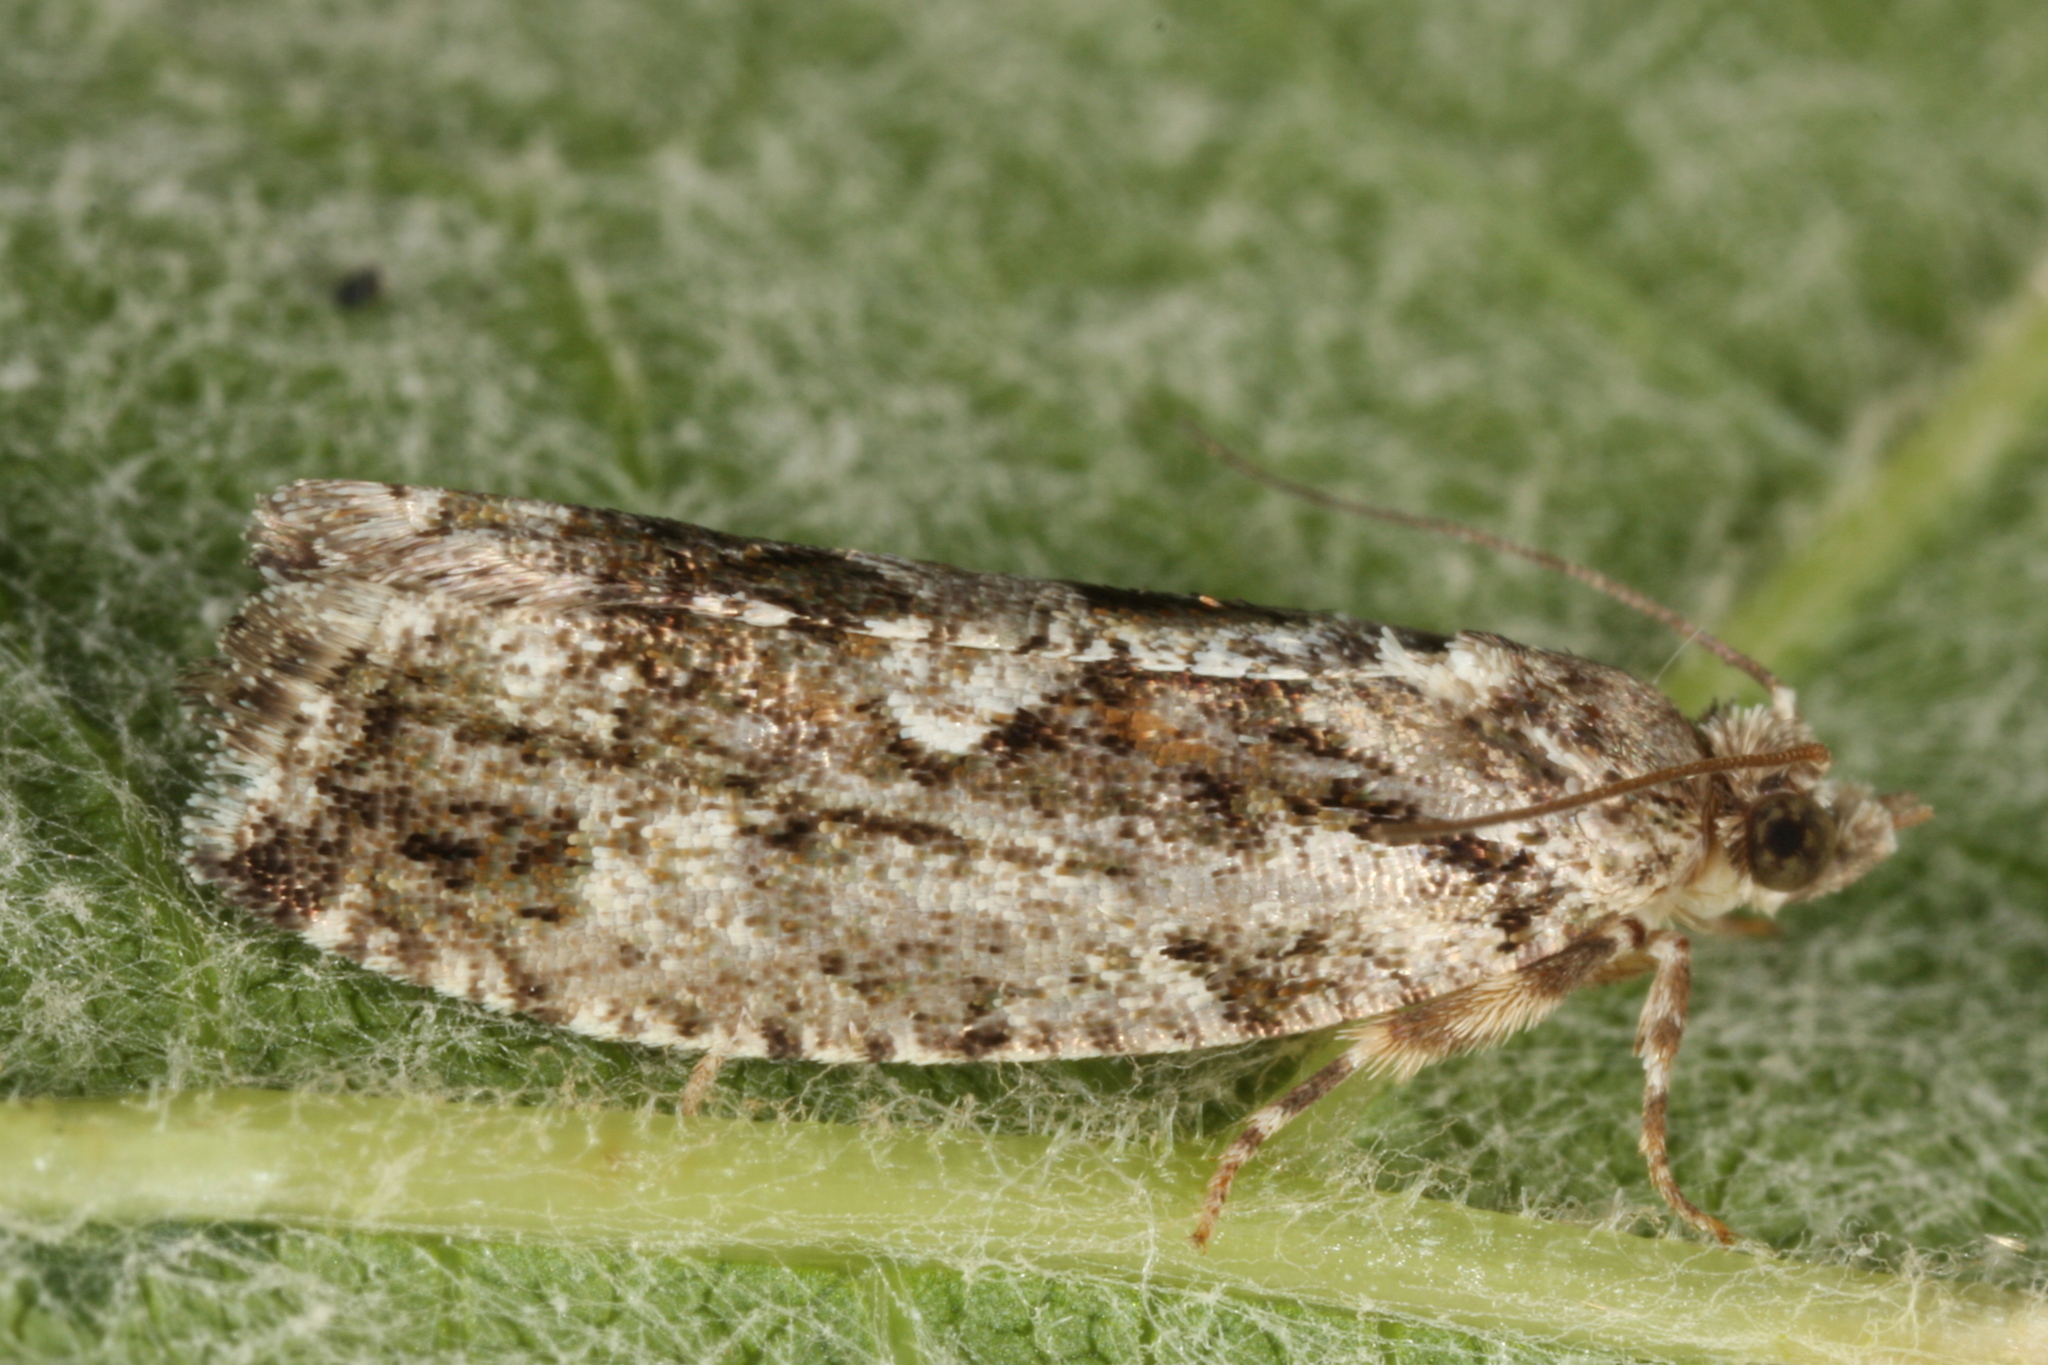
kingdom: Animalia
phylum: Arthropoda
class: Insecta
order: Lepidoptera
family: Tortricidae
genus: Zeiraphera
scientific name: Zeiraphera isertana
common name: Cock's-head bell
